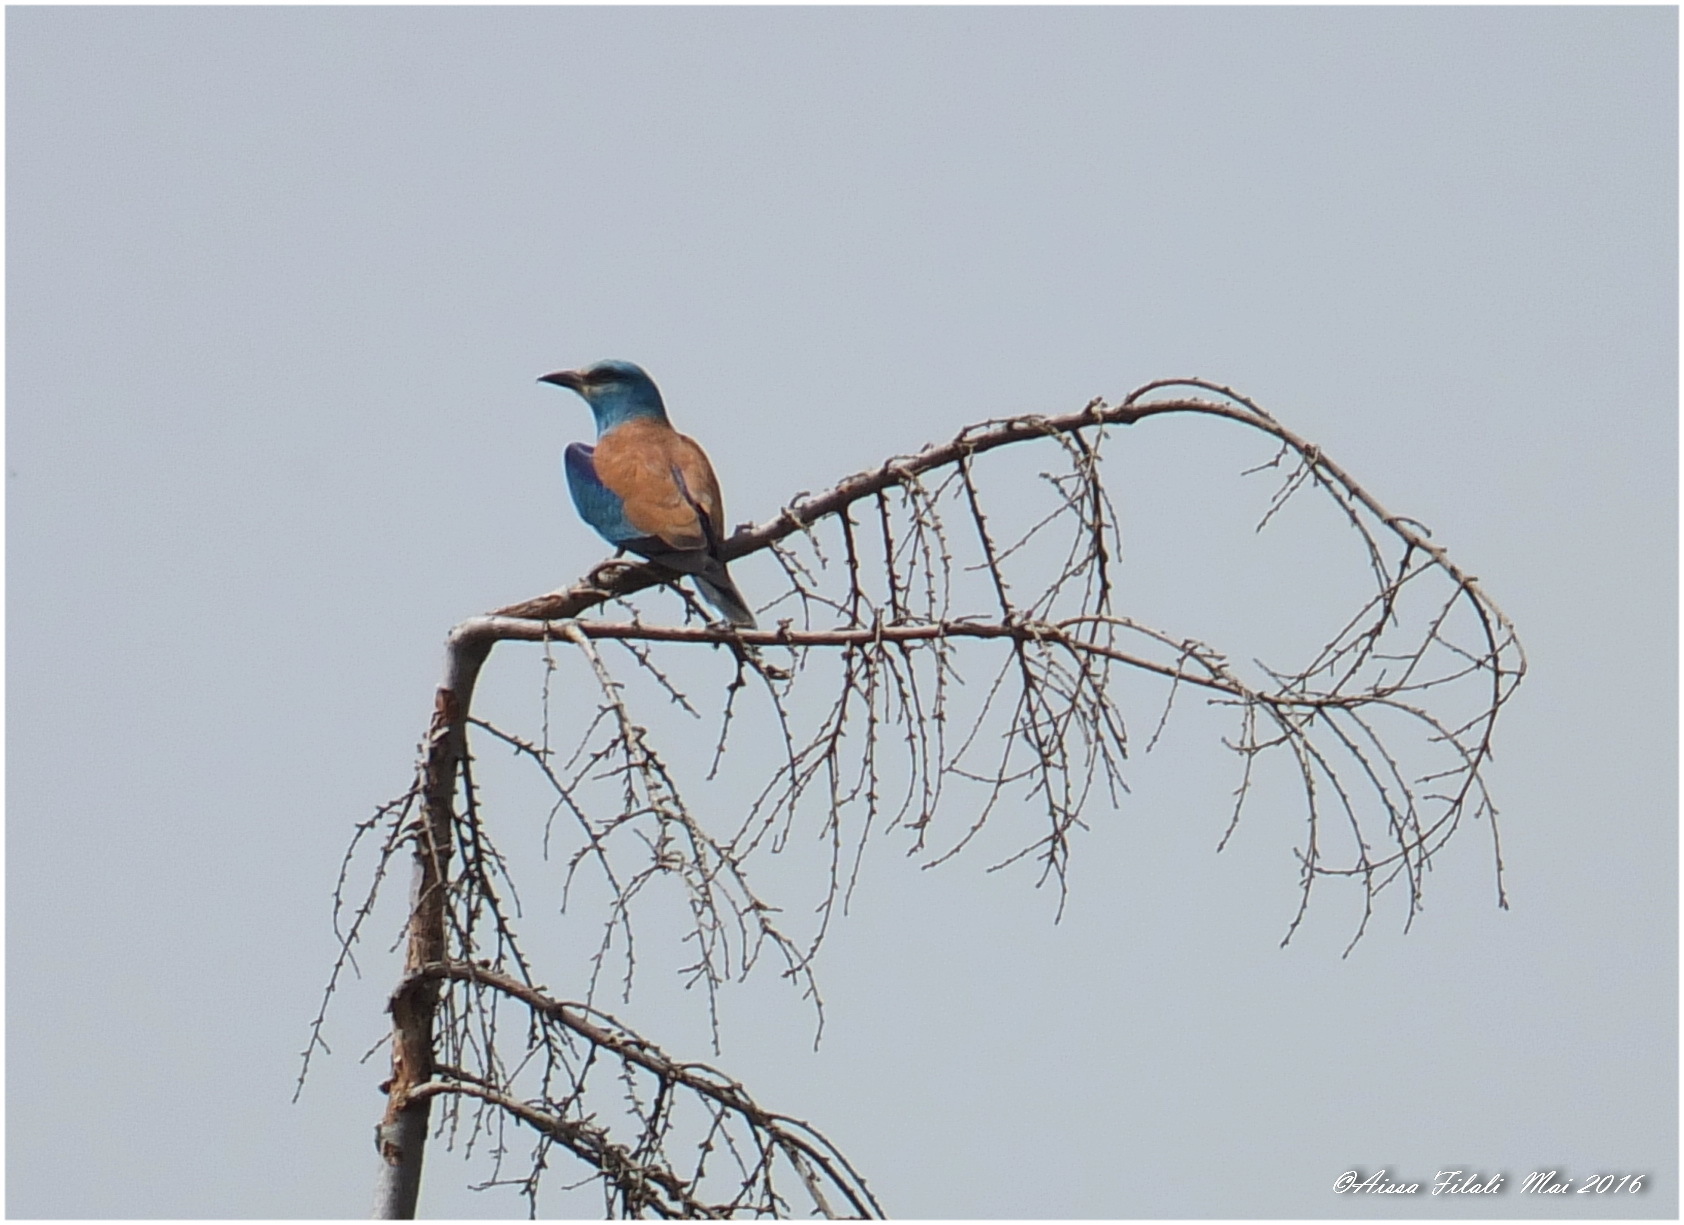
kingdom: Animalia
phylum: Chordata
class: Aves
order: Coraciiformes
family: Coraciidae
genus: Coracias
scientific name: Coracias garrulus
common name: European roller
